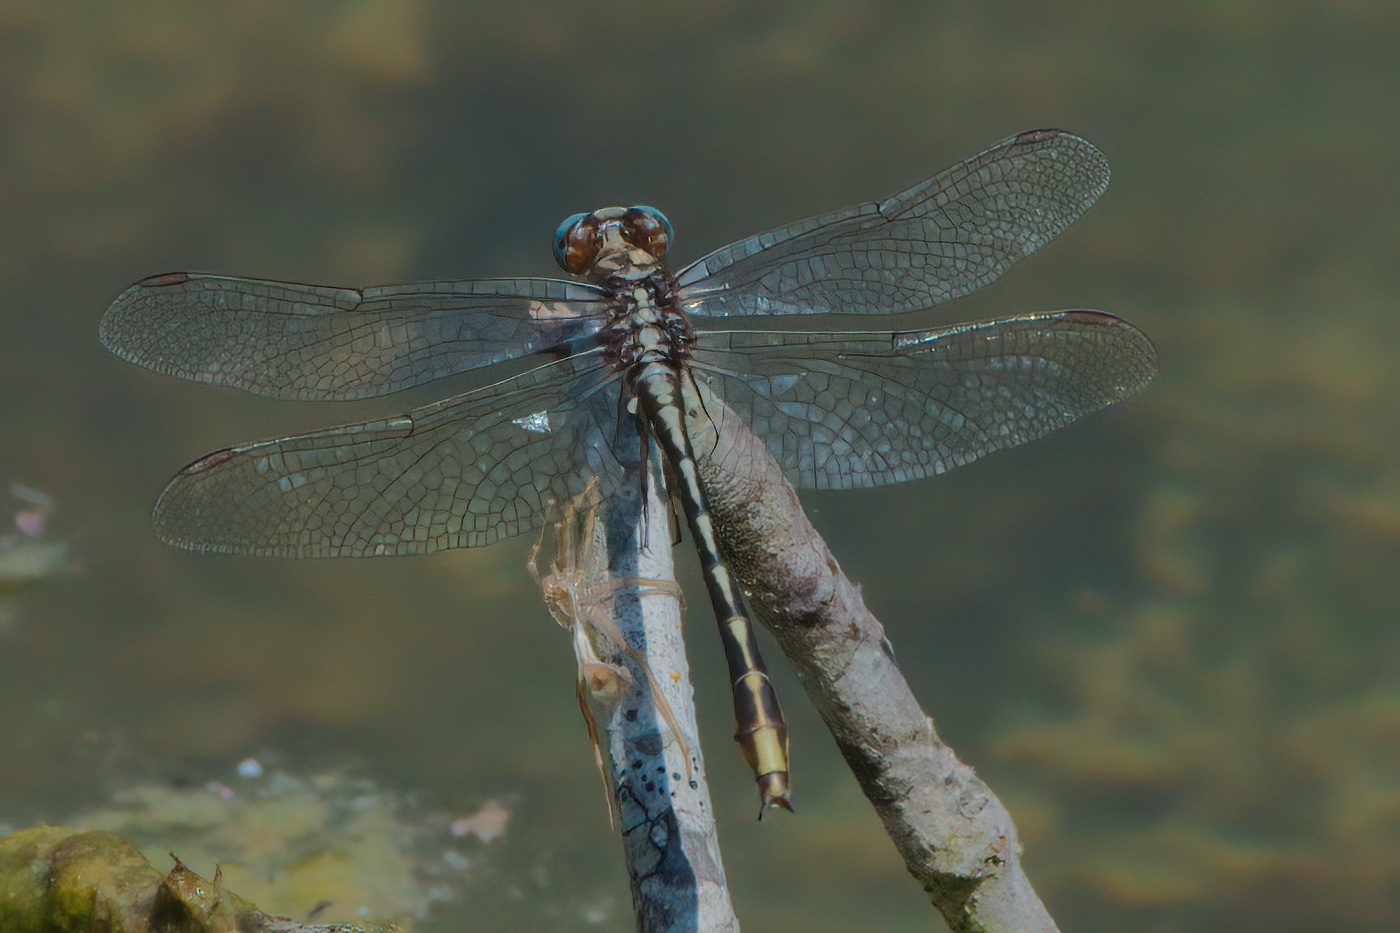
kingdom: Animalia
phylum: Arthropoda
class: Insecta
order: Odonata
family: Gomphidae
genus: Phanogomphus
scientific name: Phanogomphus exilis
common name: Lancet clubtail
